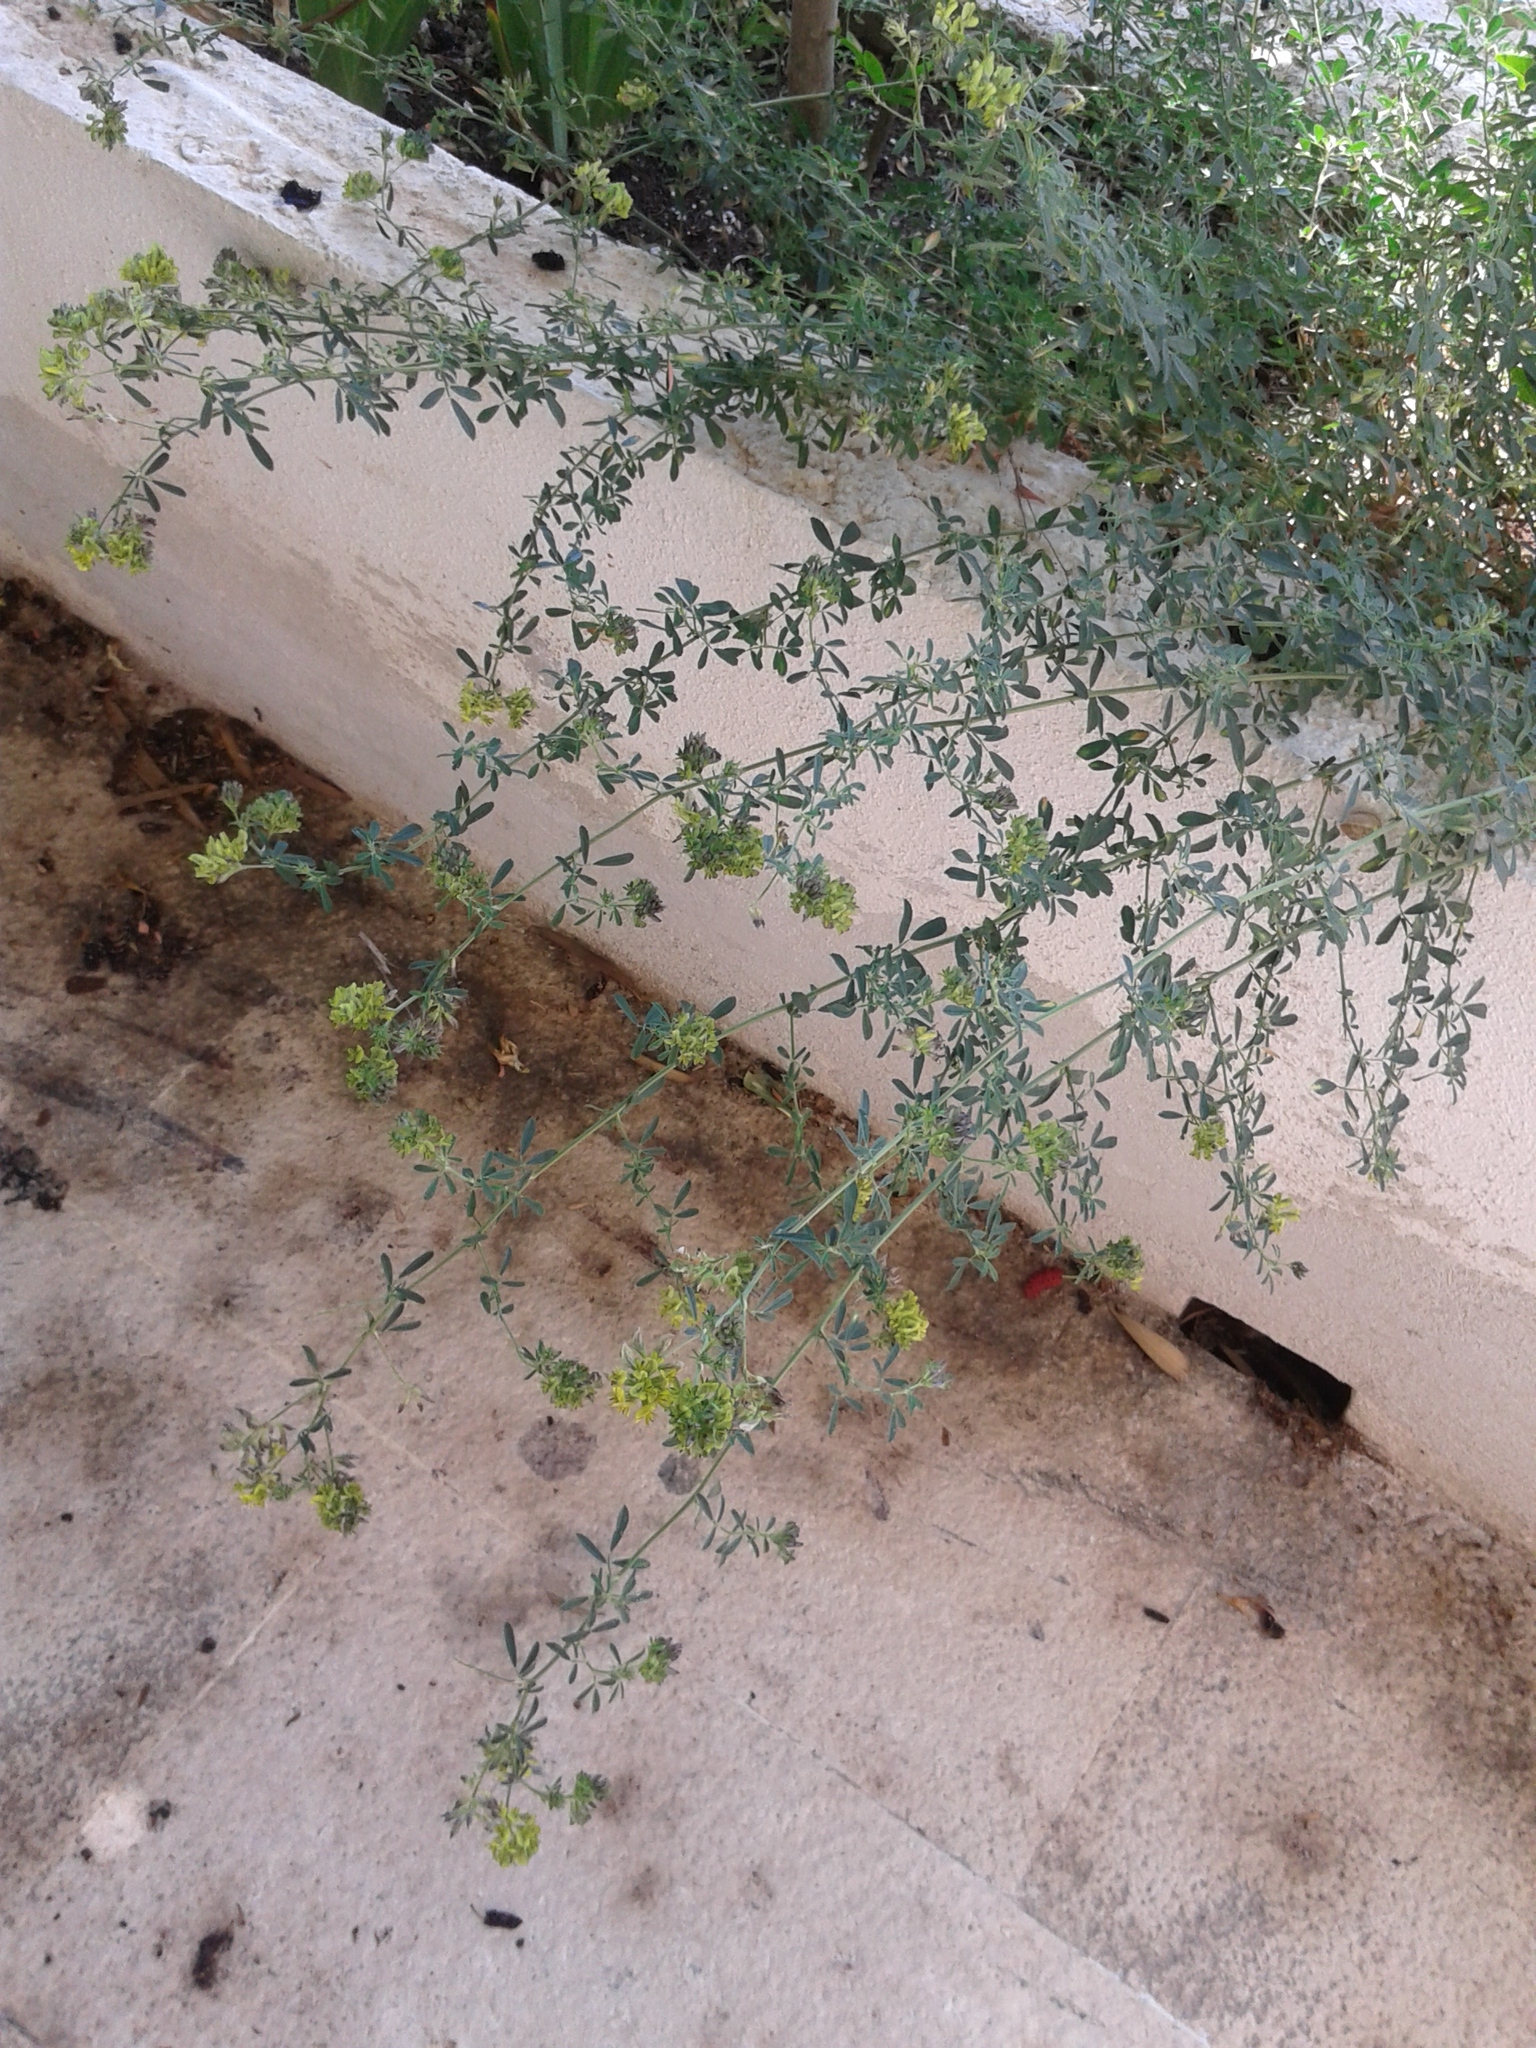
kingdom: Plantae
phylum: Tracheophyta
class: Magnoliopsida
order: Fabales
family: Fabaceae
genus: Medicago
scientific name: Medicago varia
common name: Sand lucerne
